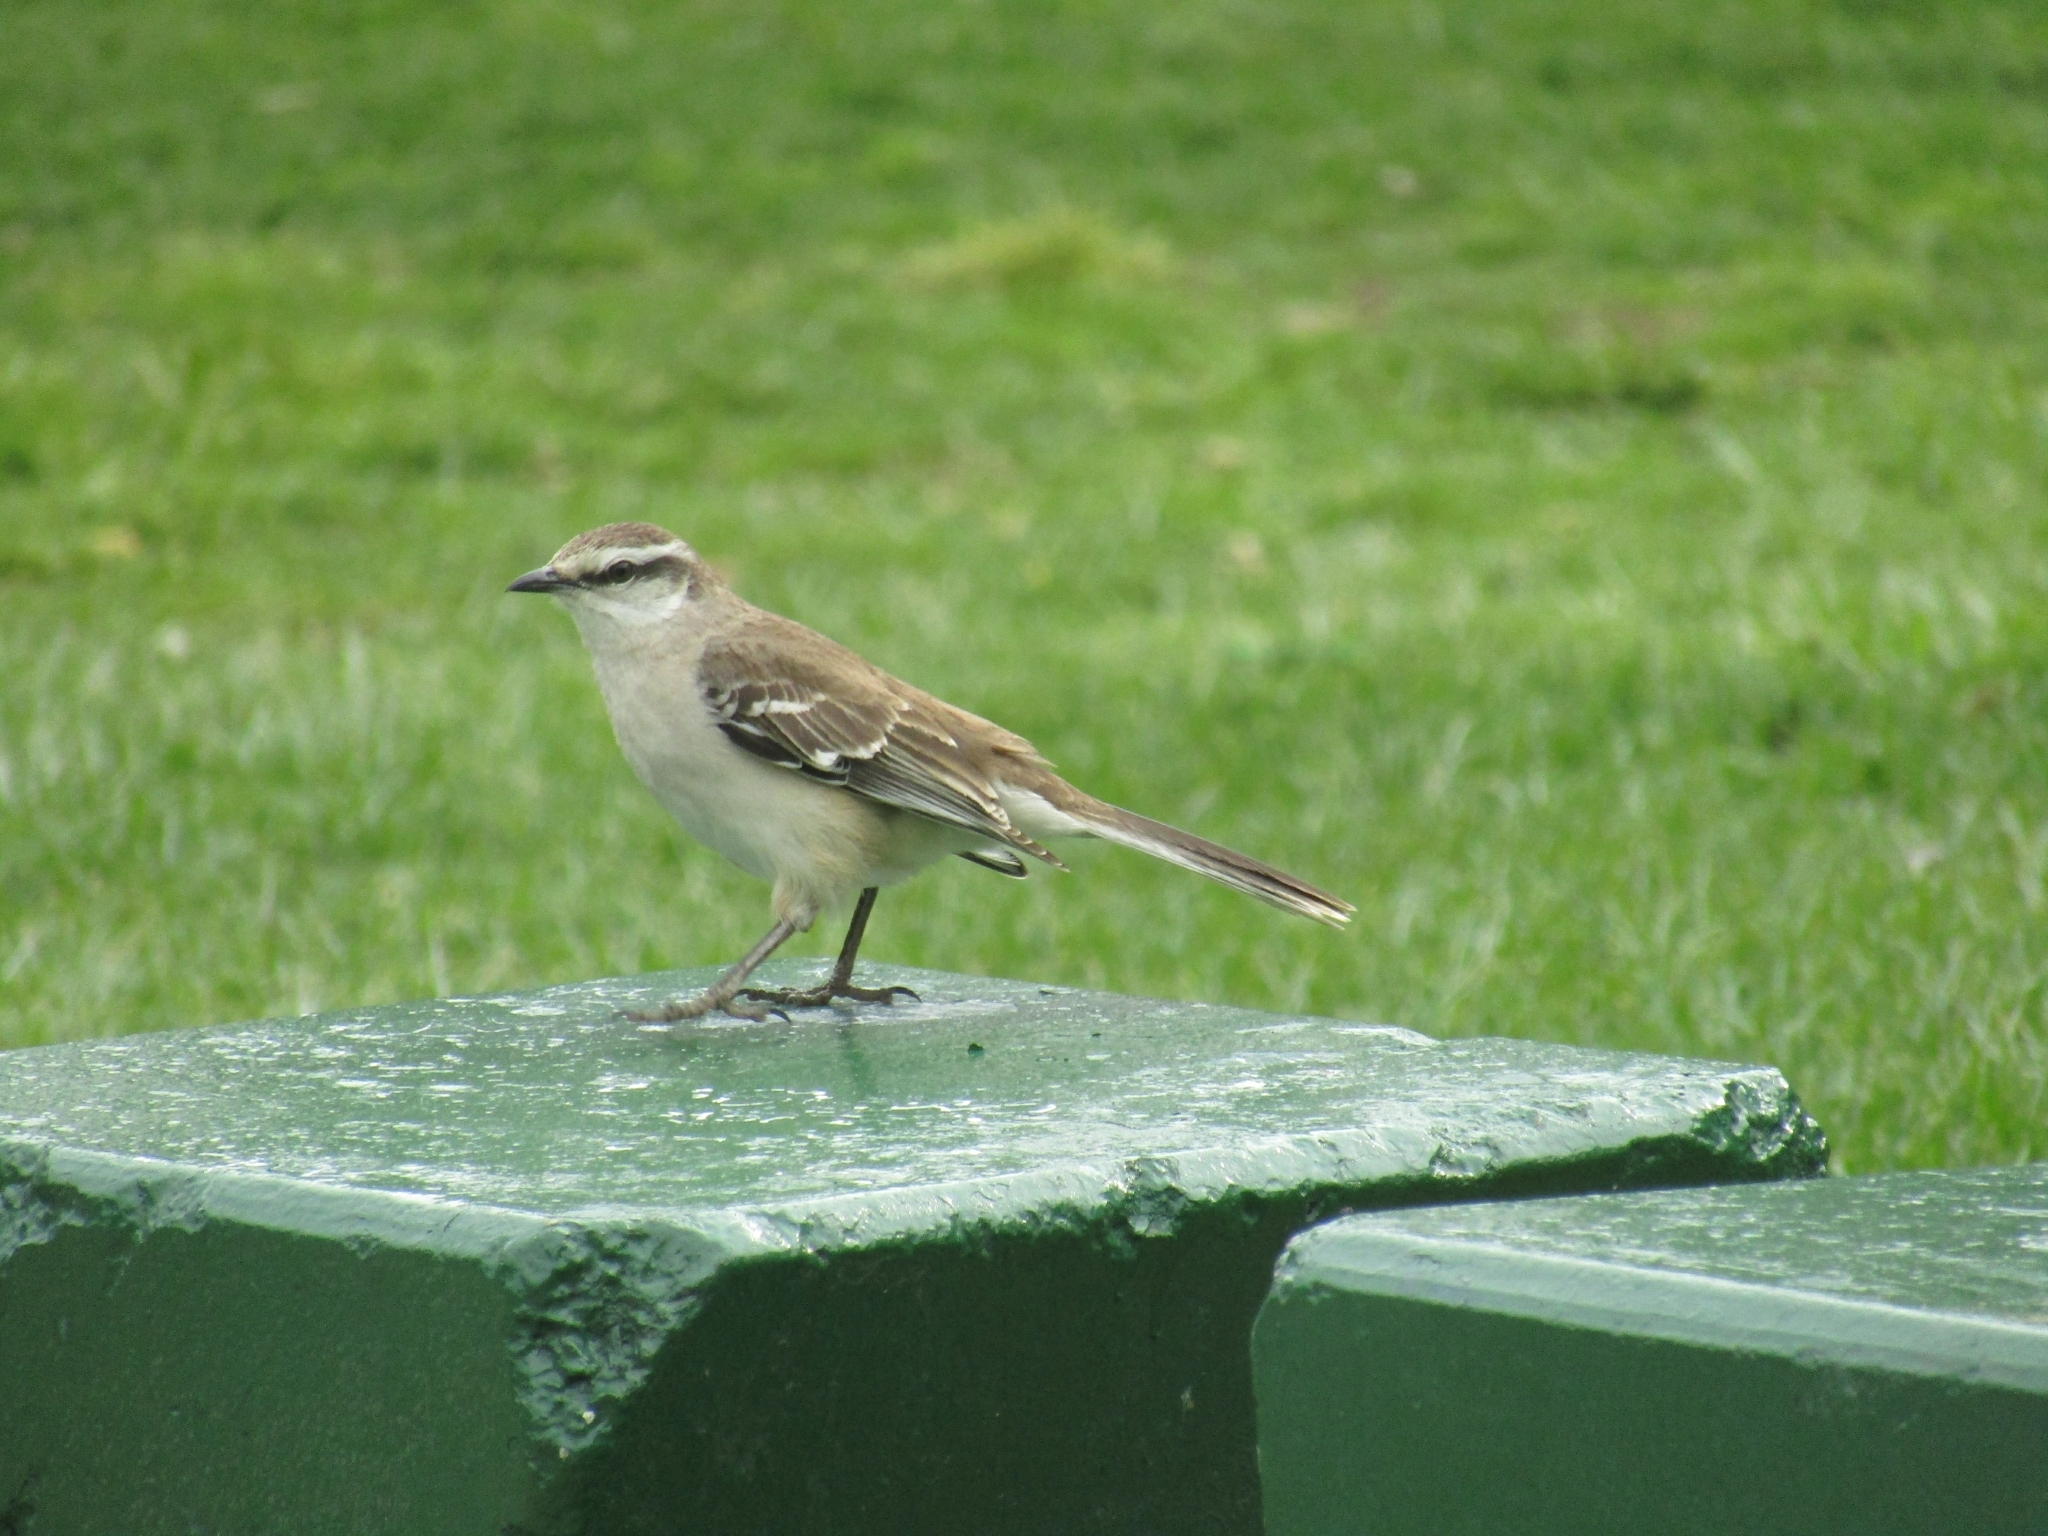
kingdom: Animalia
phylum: Chordata
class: Aves
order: Passeriformes
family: Mimidae
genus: Mimus
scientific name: Mimus saturninus
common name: Chalk-browed mockingbird
